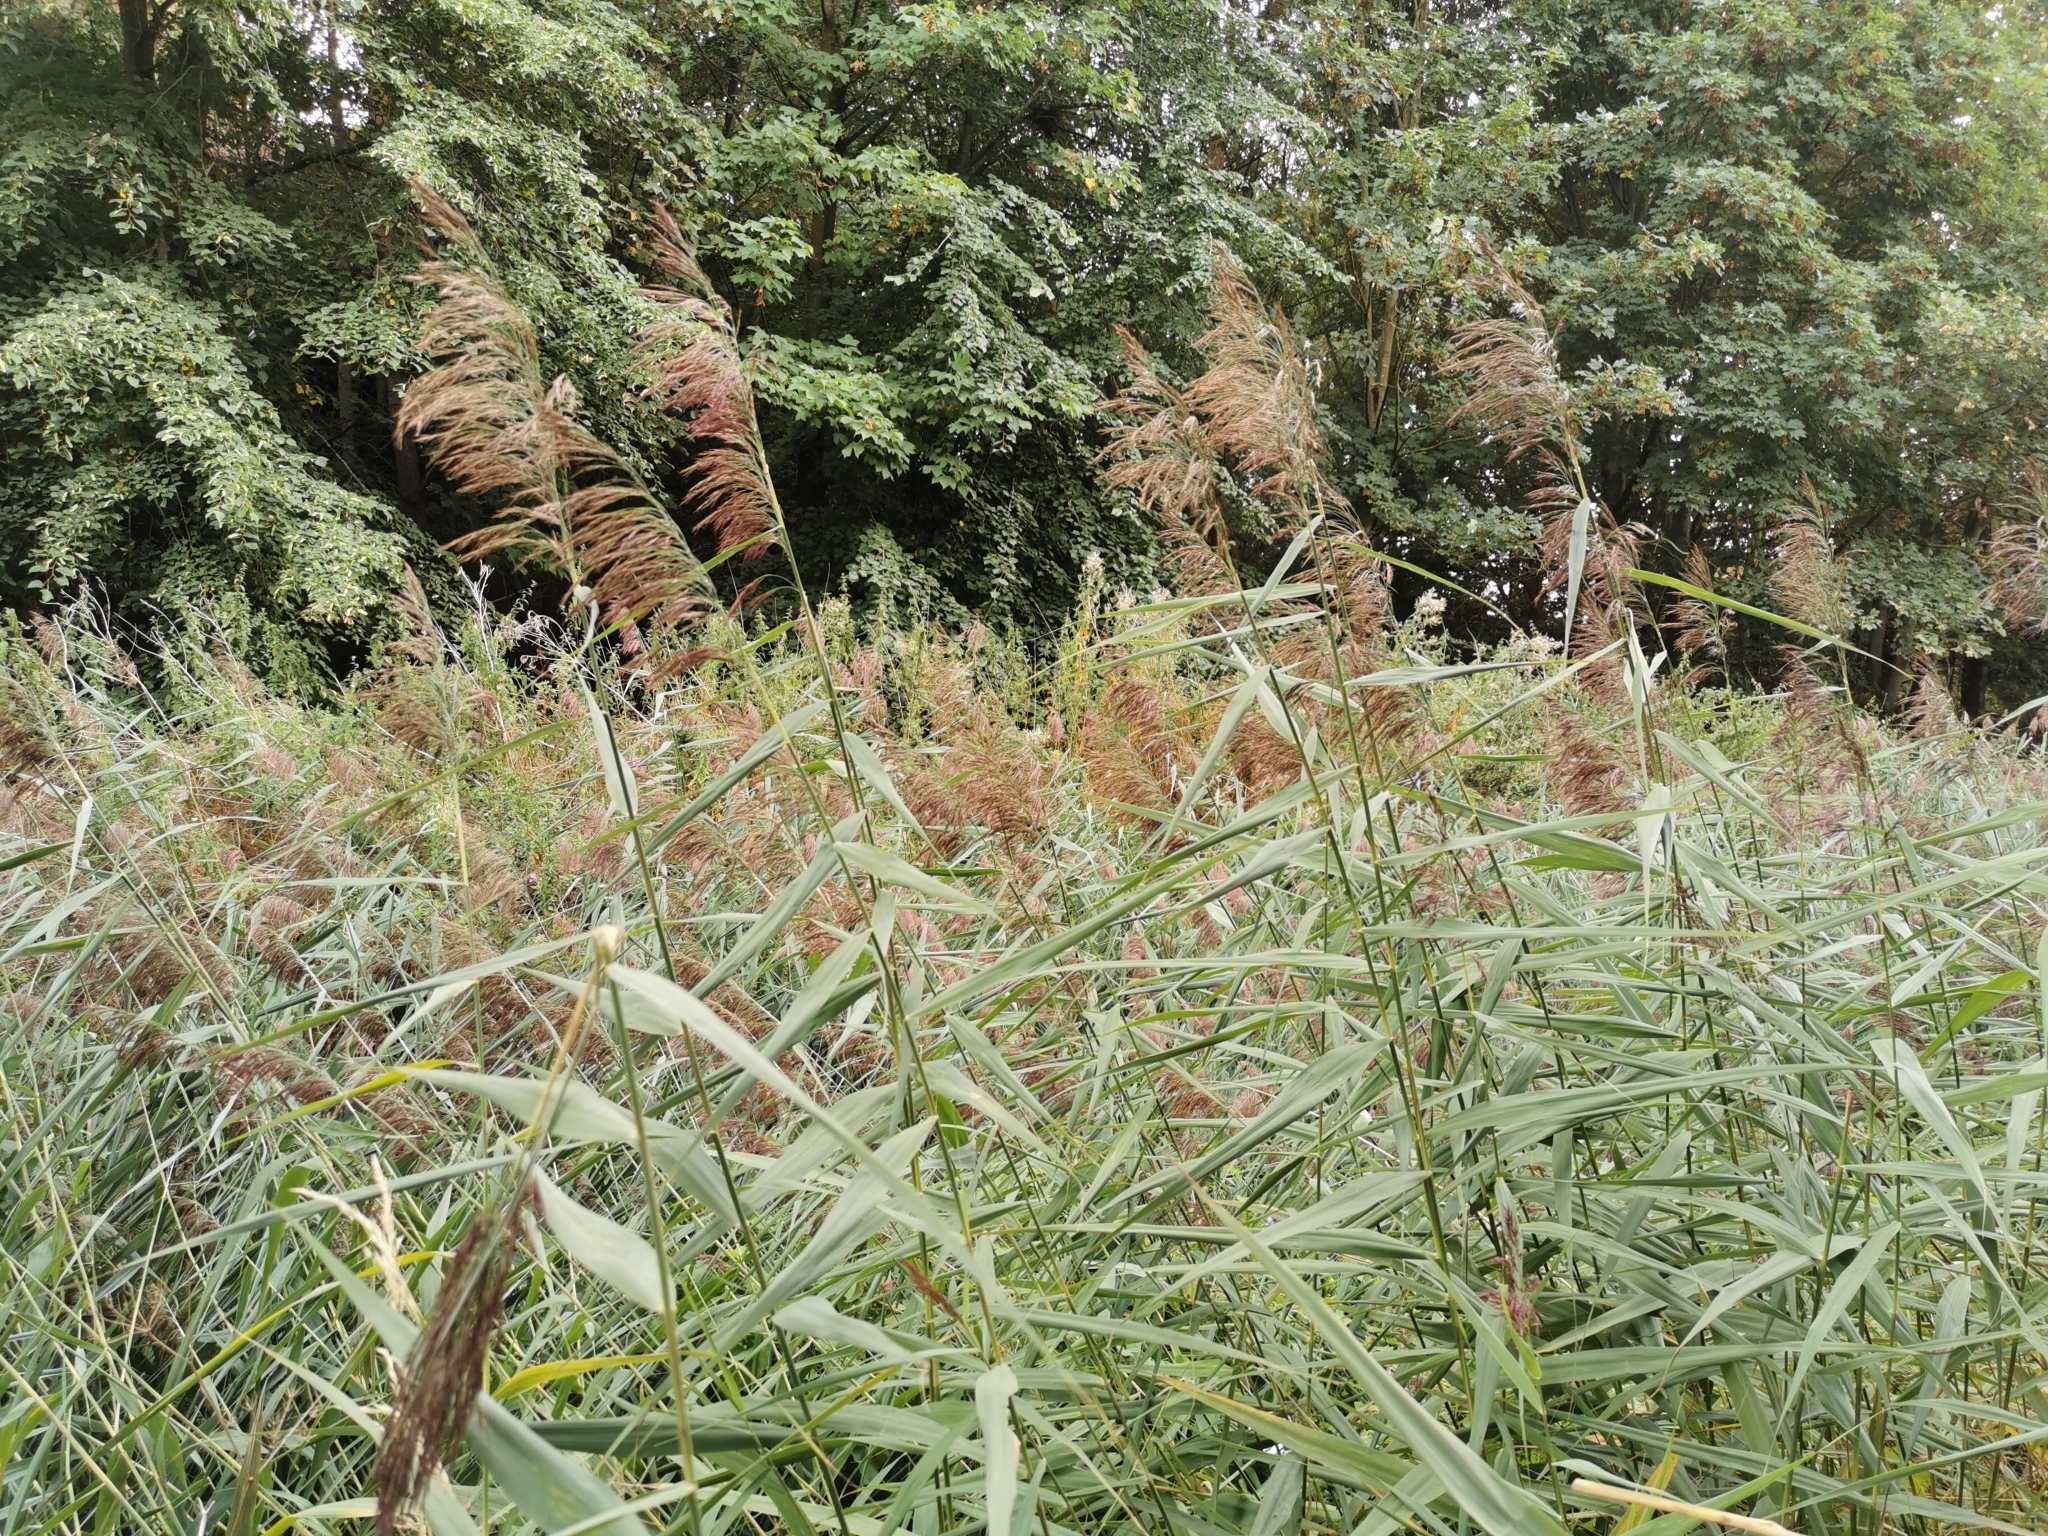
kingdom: Plantae
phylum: Tracheophyta
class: Liliopsida
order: Poales
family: Poaceae
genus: Phragmites
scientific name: Phragmites australis
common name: Common reed
